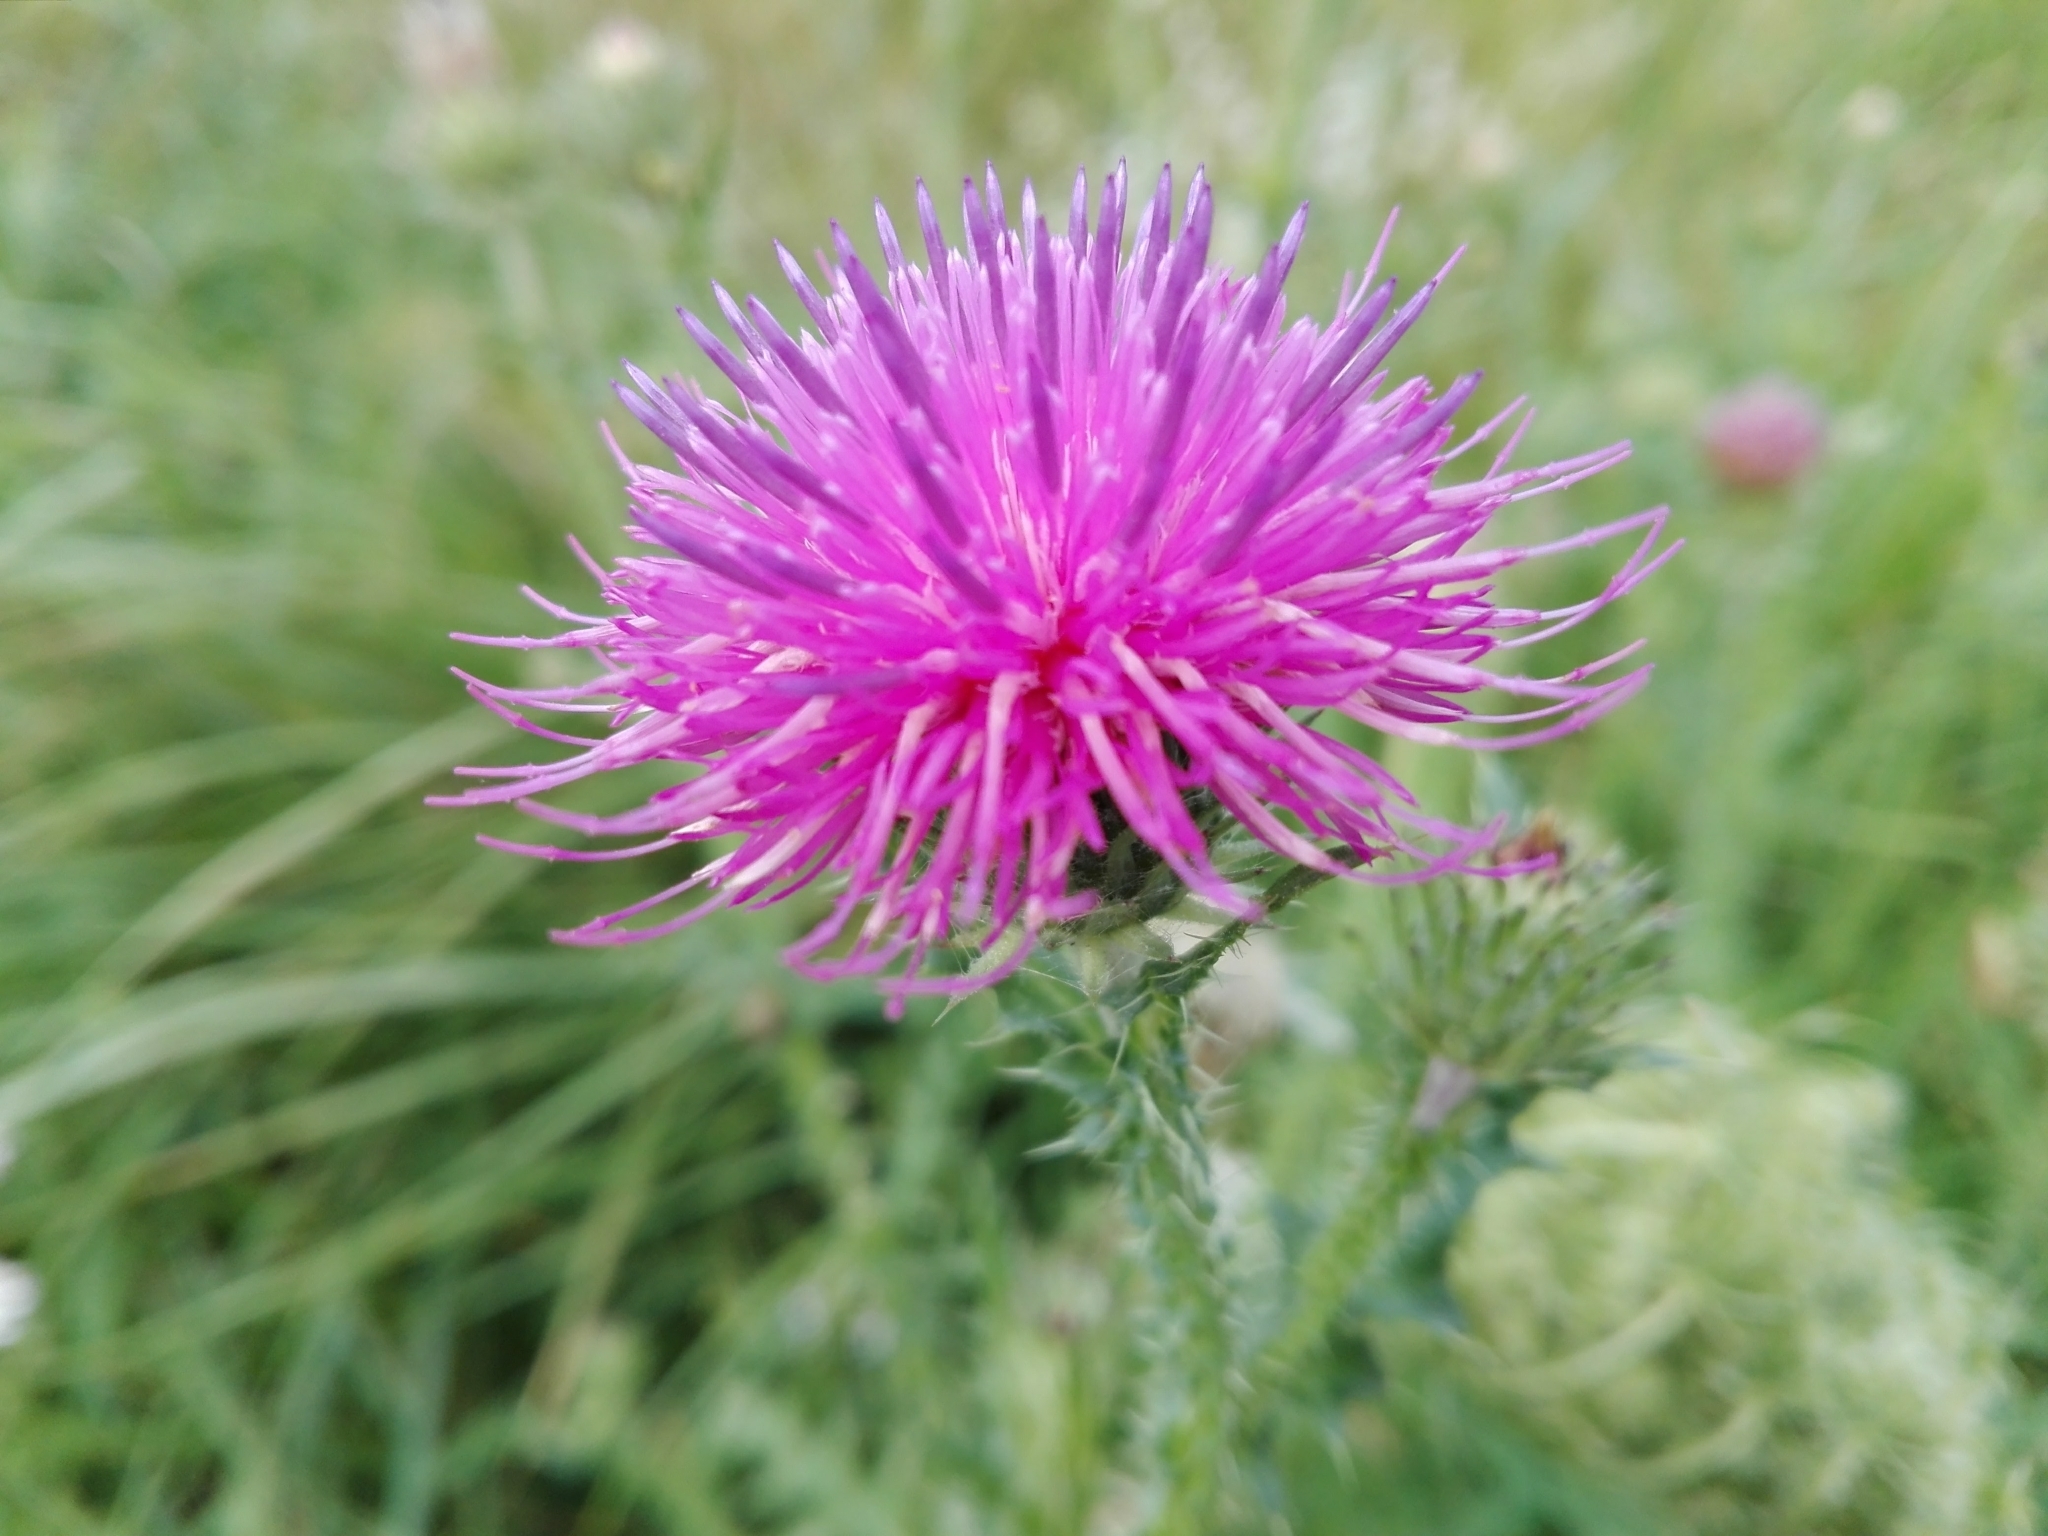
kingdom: Plantae
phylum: Tracheophyta
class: Magnoliopsida
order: Asterales
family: Asteraceae
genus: Carduus
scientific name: Carduus acanthoides
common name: Plumeless thistle
